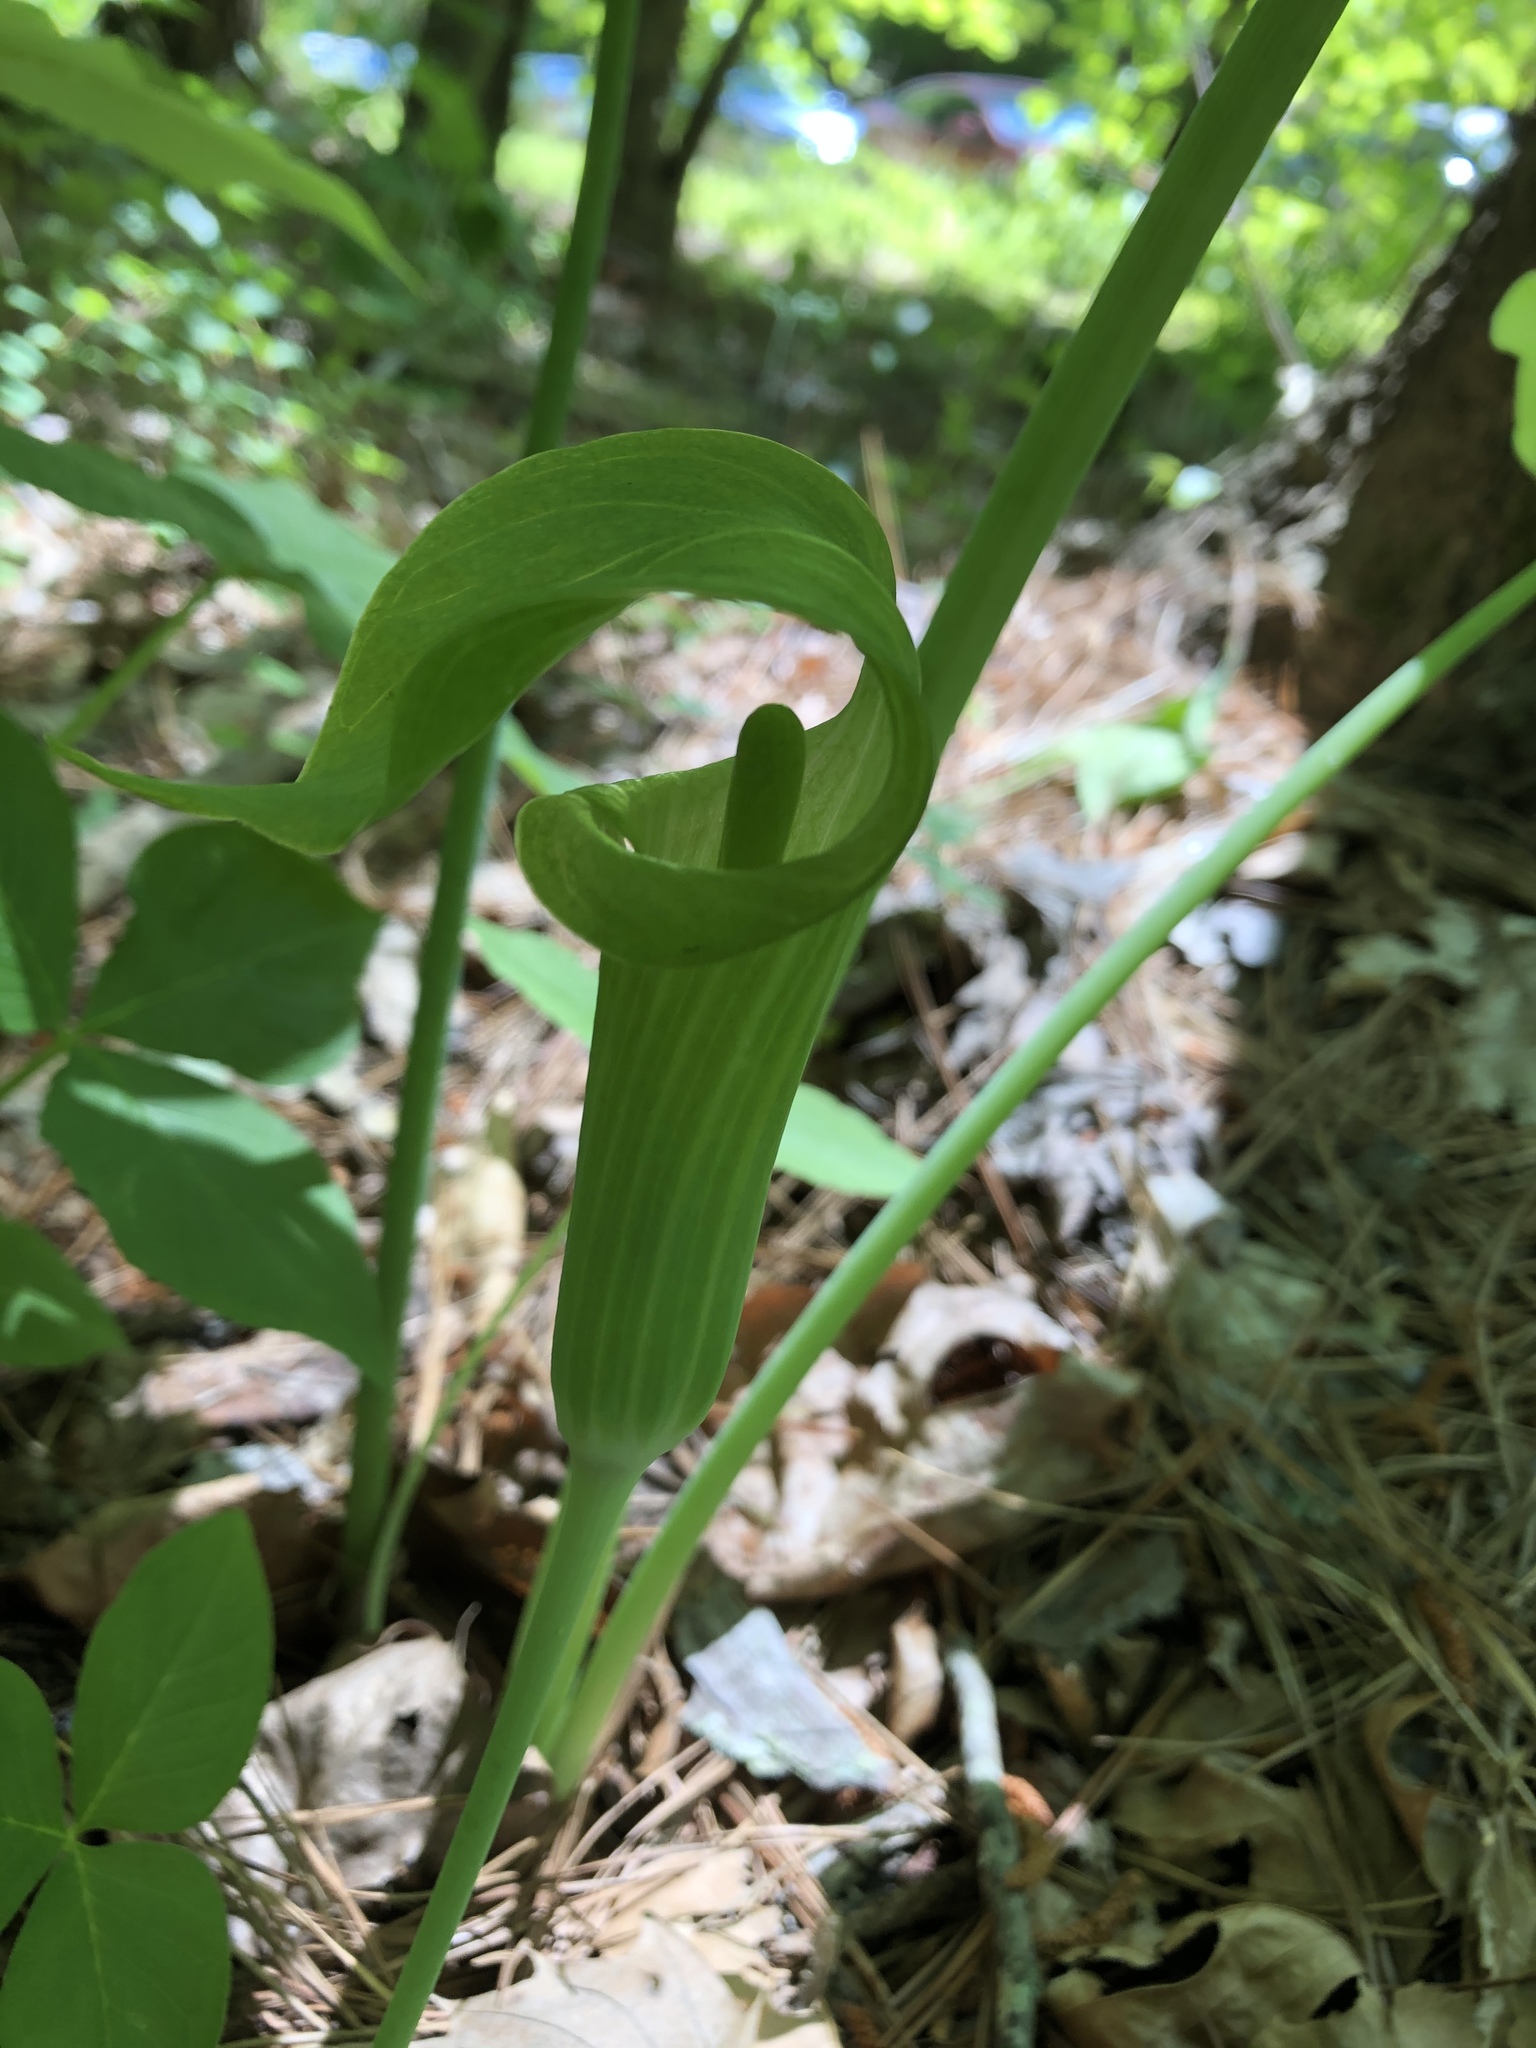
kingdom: Plantae
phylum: Tracheophyta
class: Liliopsida
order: Alismatales
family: Araceae
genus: Arisaema
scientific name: Arisaema triphyllum
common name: Jack-in-the-pulpit
